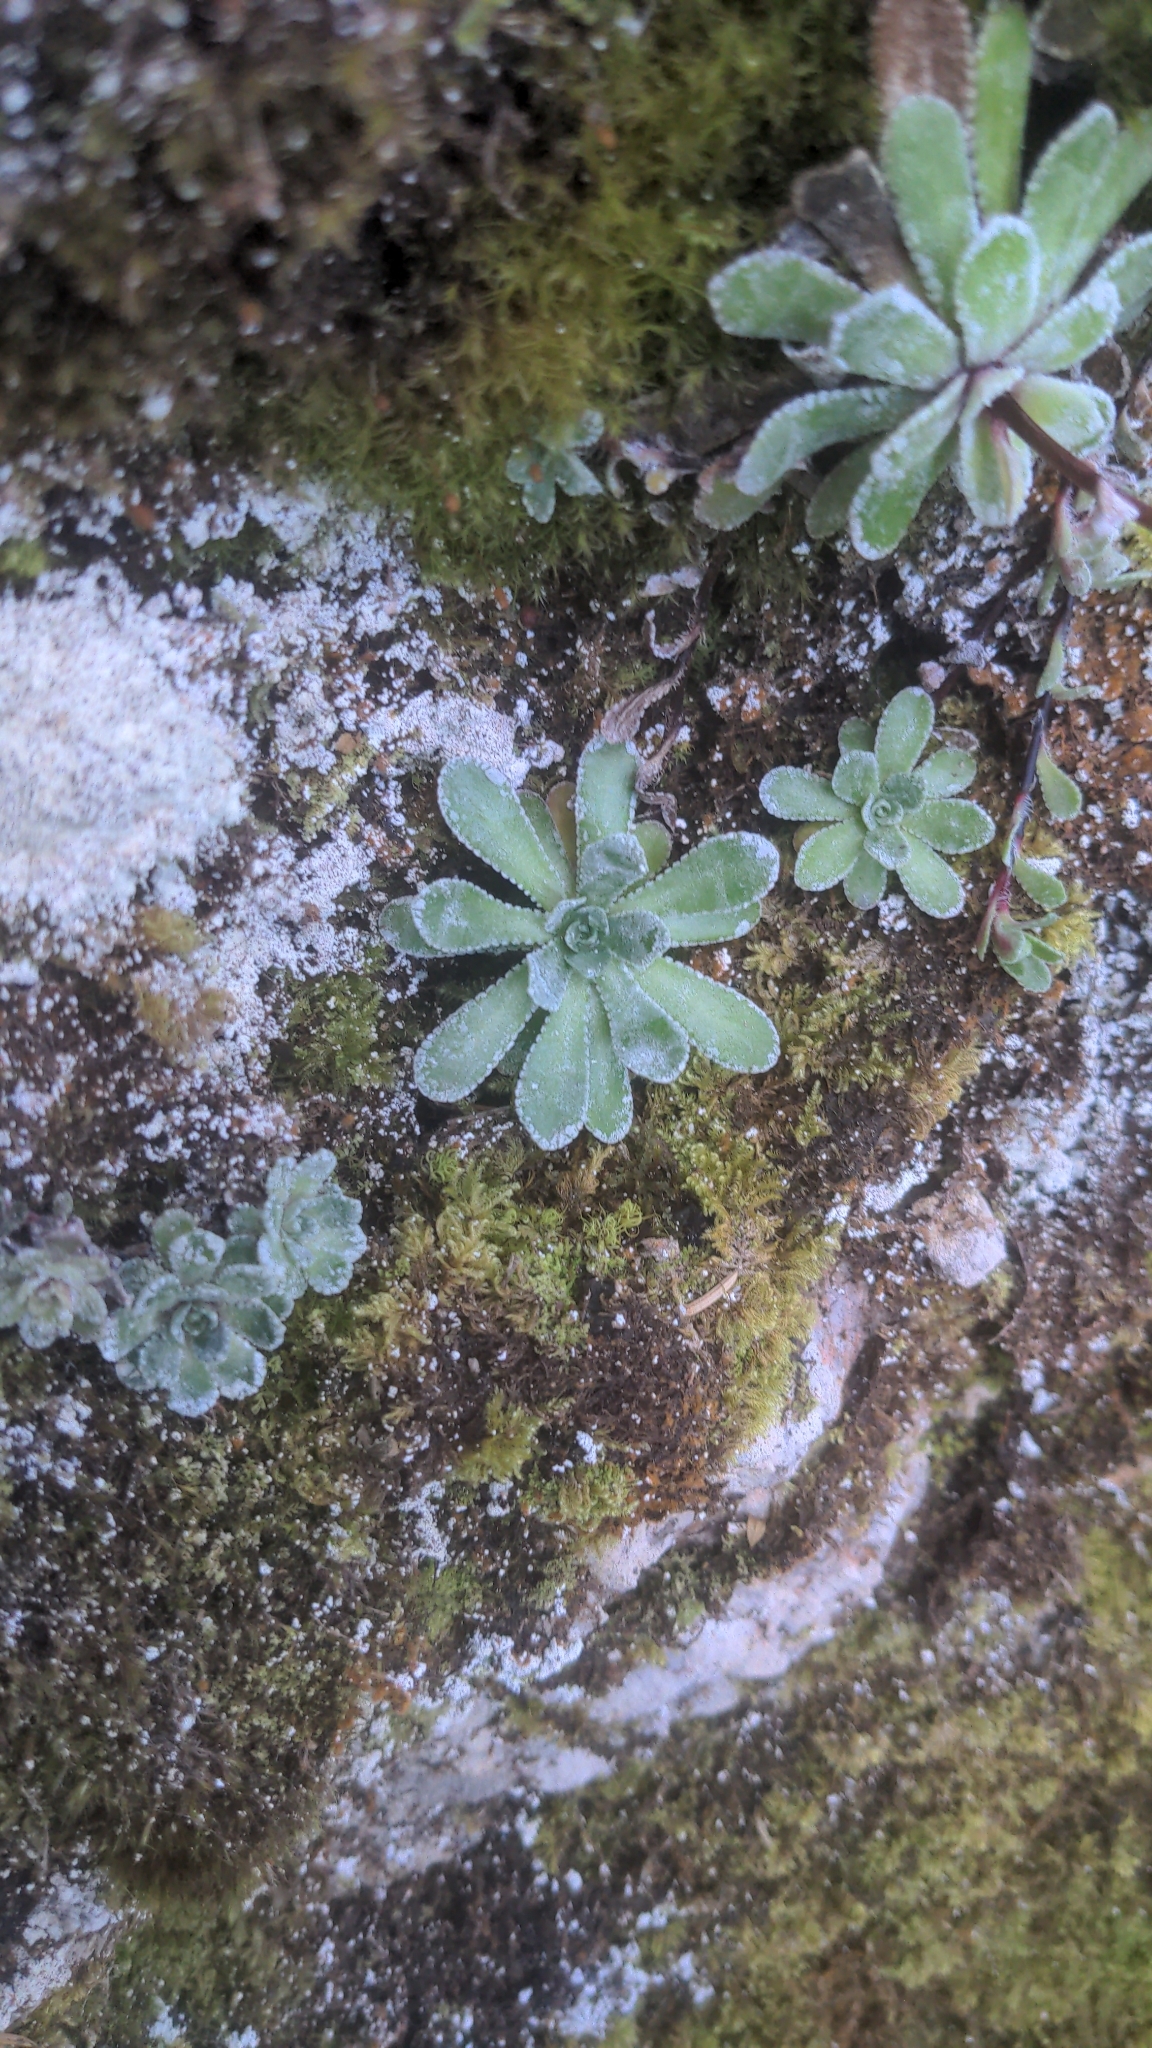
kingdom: Plantae
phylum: Tracheophyta
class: Magnoliopsida
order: Saxifragales
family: Saxifragaceae
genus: Saxifraga
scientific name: Saxifraga paniculata
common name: Livelong saxifrage
